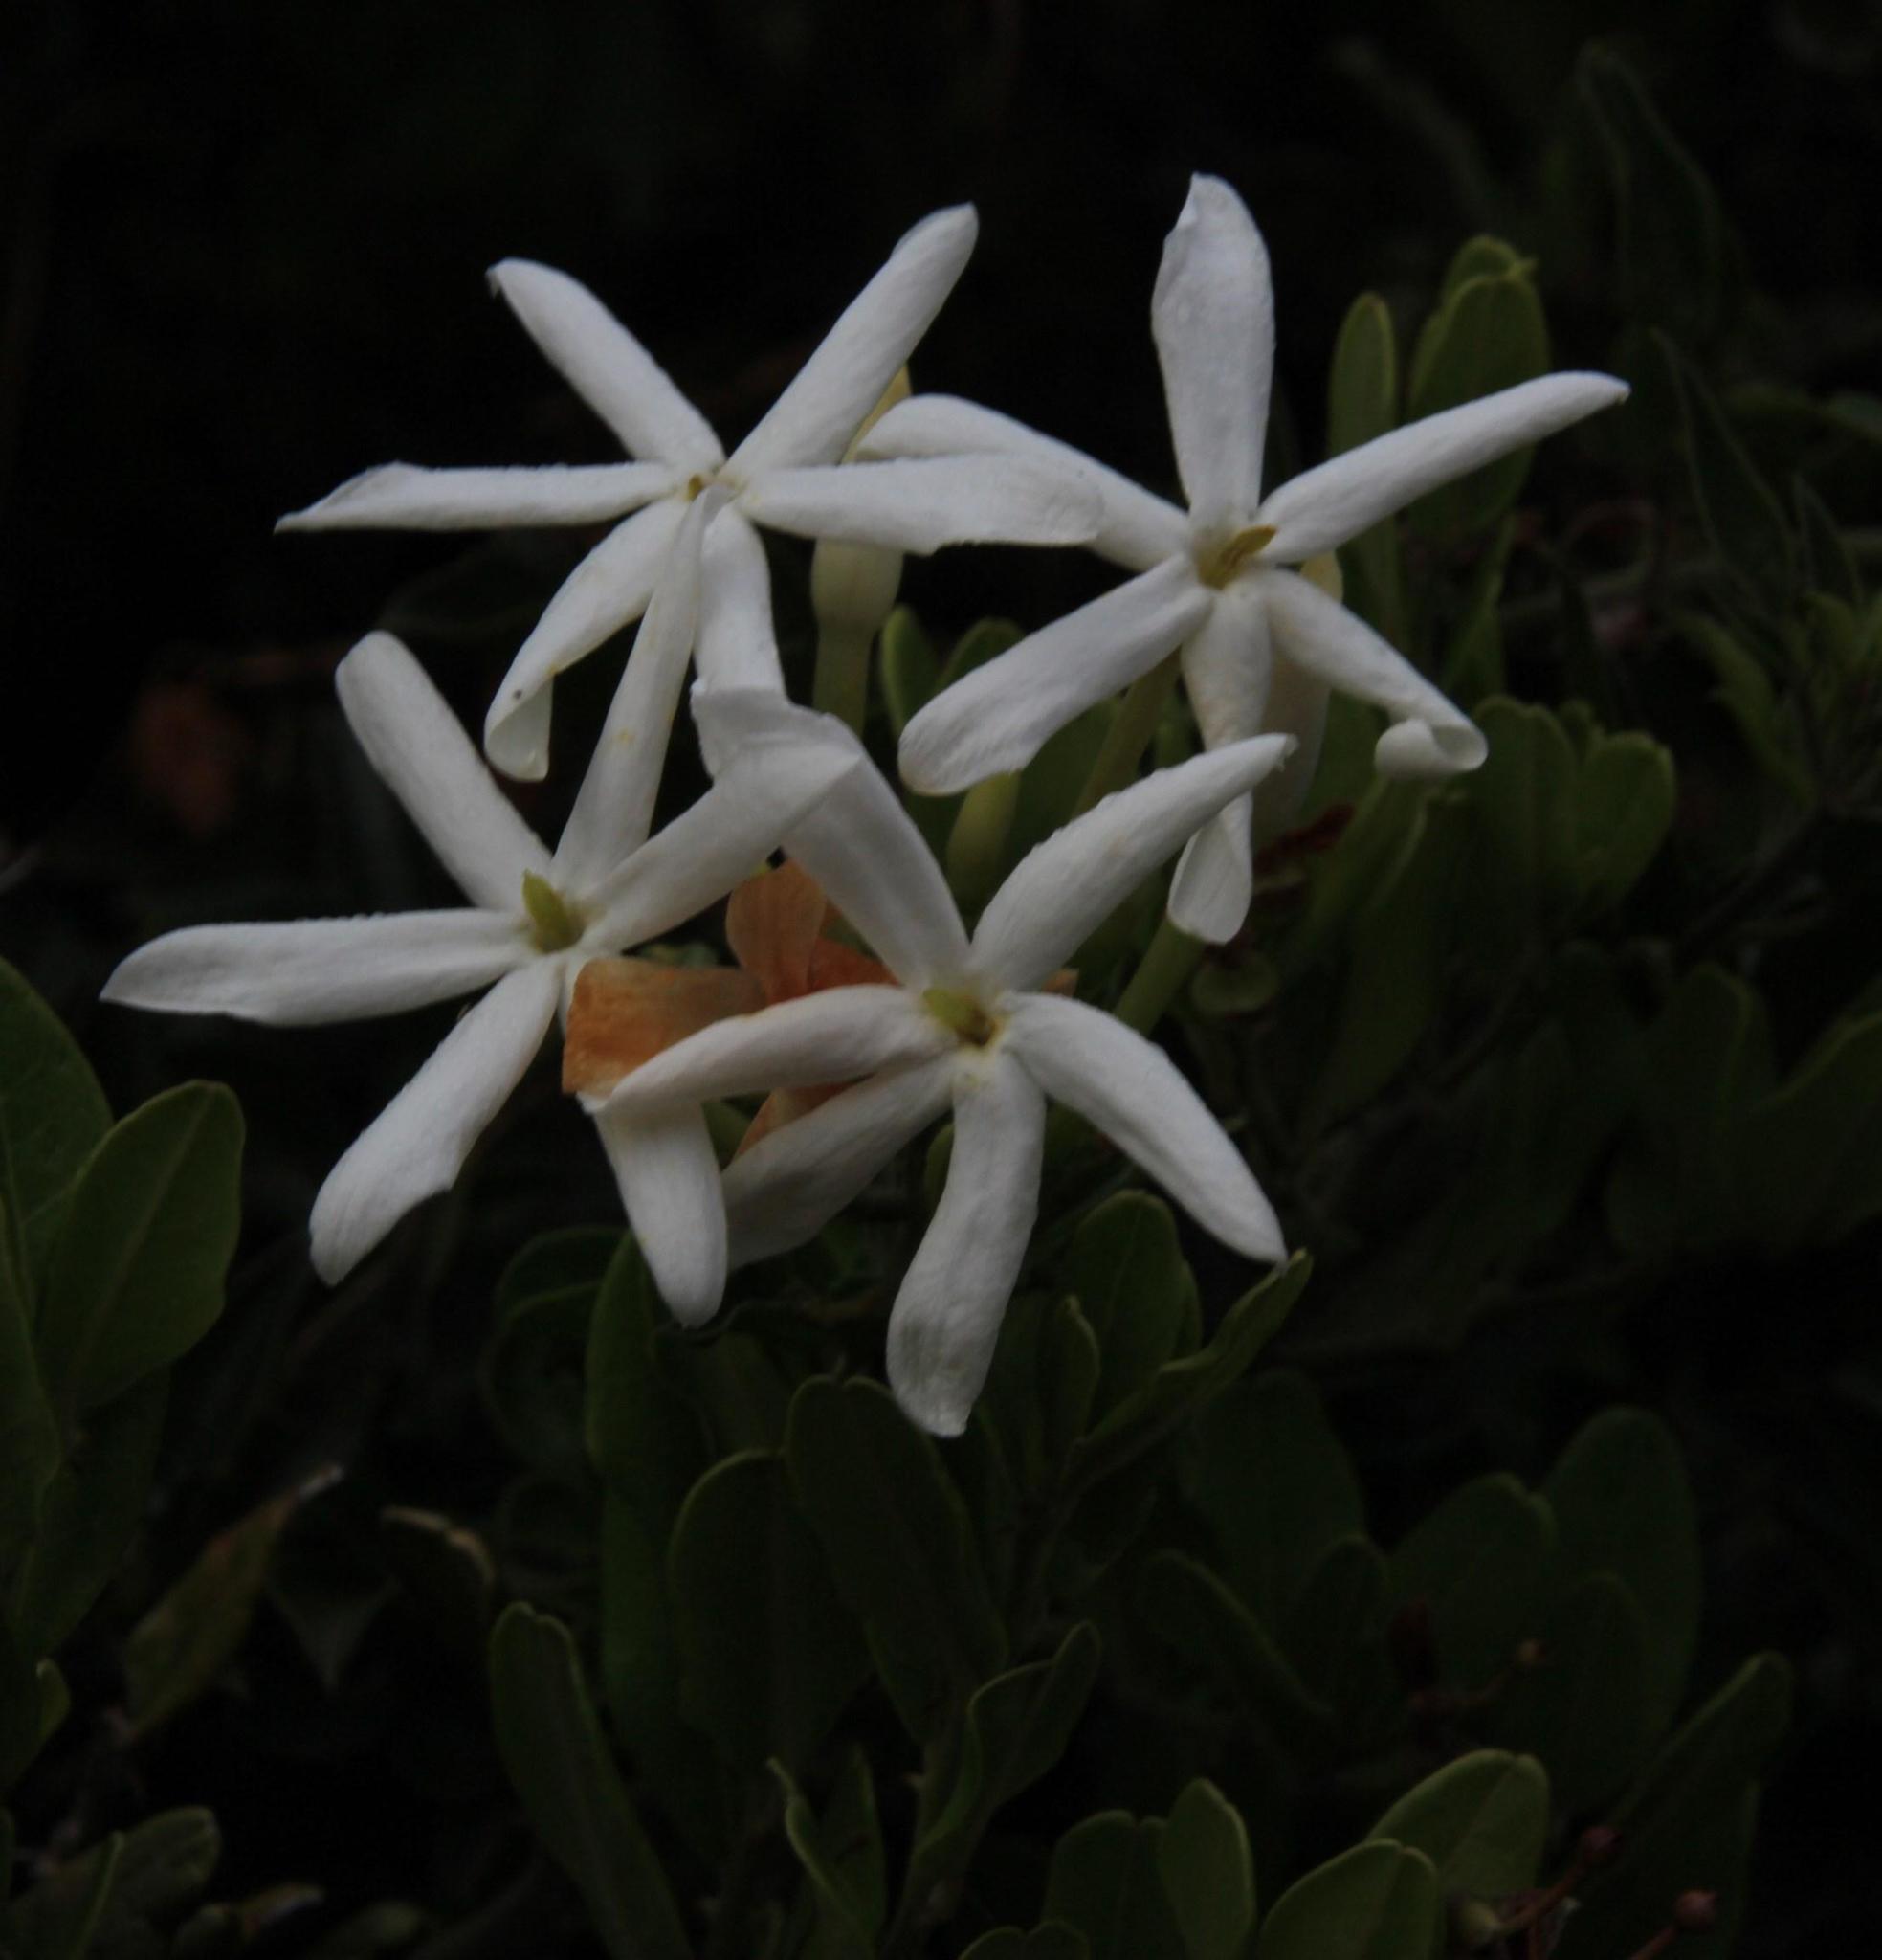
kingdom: Plantae
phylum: Tracheophyta
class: Magnoliopsida
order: Lamiales
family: Oleaceae
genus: Jasminum
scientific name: Jasminum angulare
